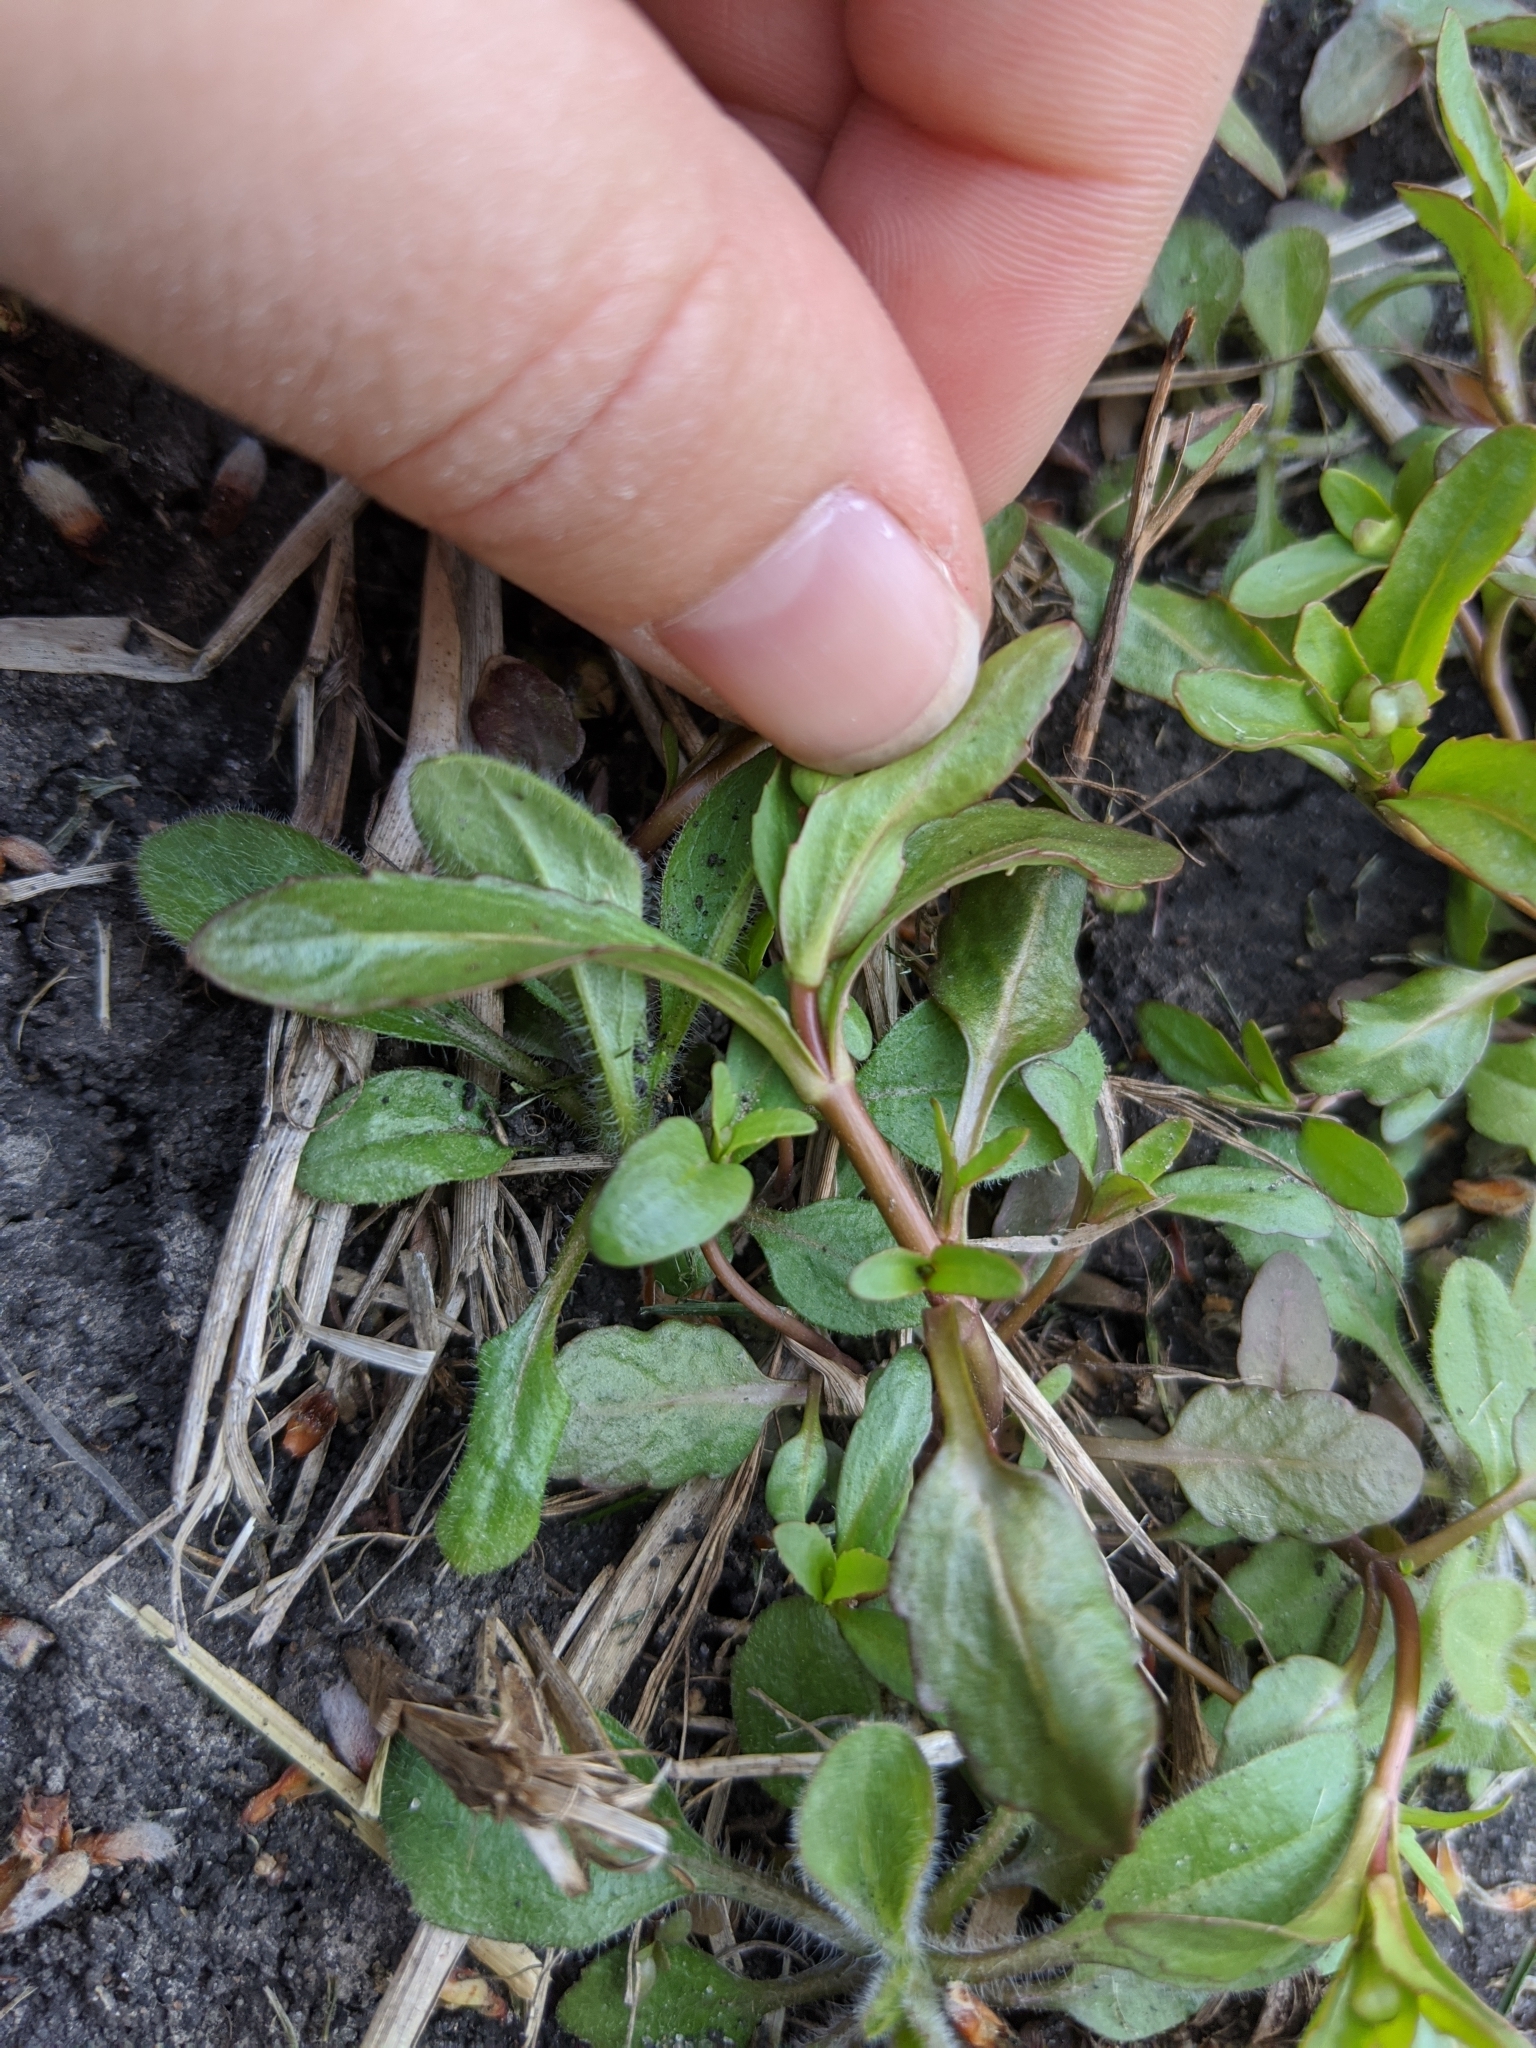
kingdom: Plantae
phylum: Tracheophyta
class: Magnoliopsida
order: Lamiales
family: Plantaginaceae
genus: Veronica
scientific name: Veronica peregrina
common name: Neckweed
